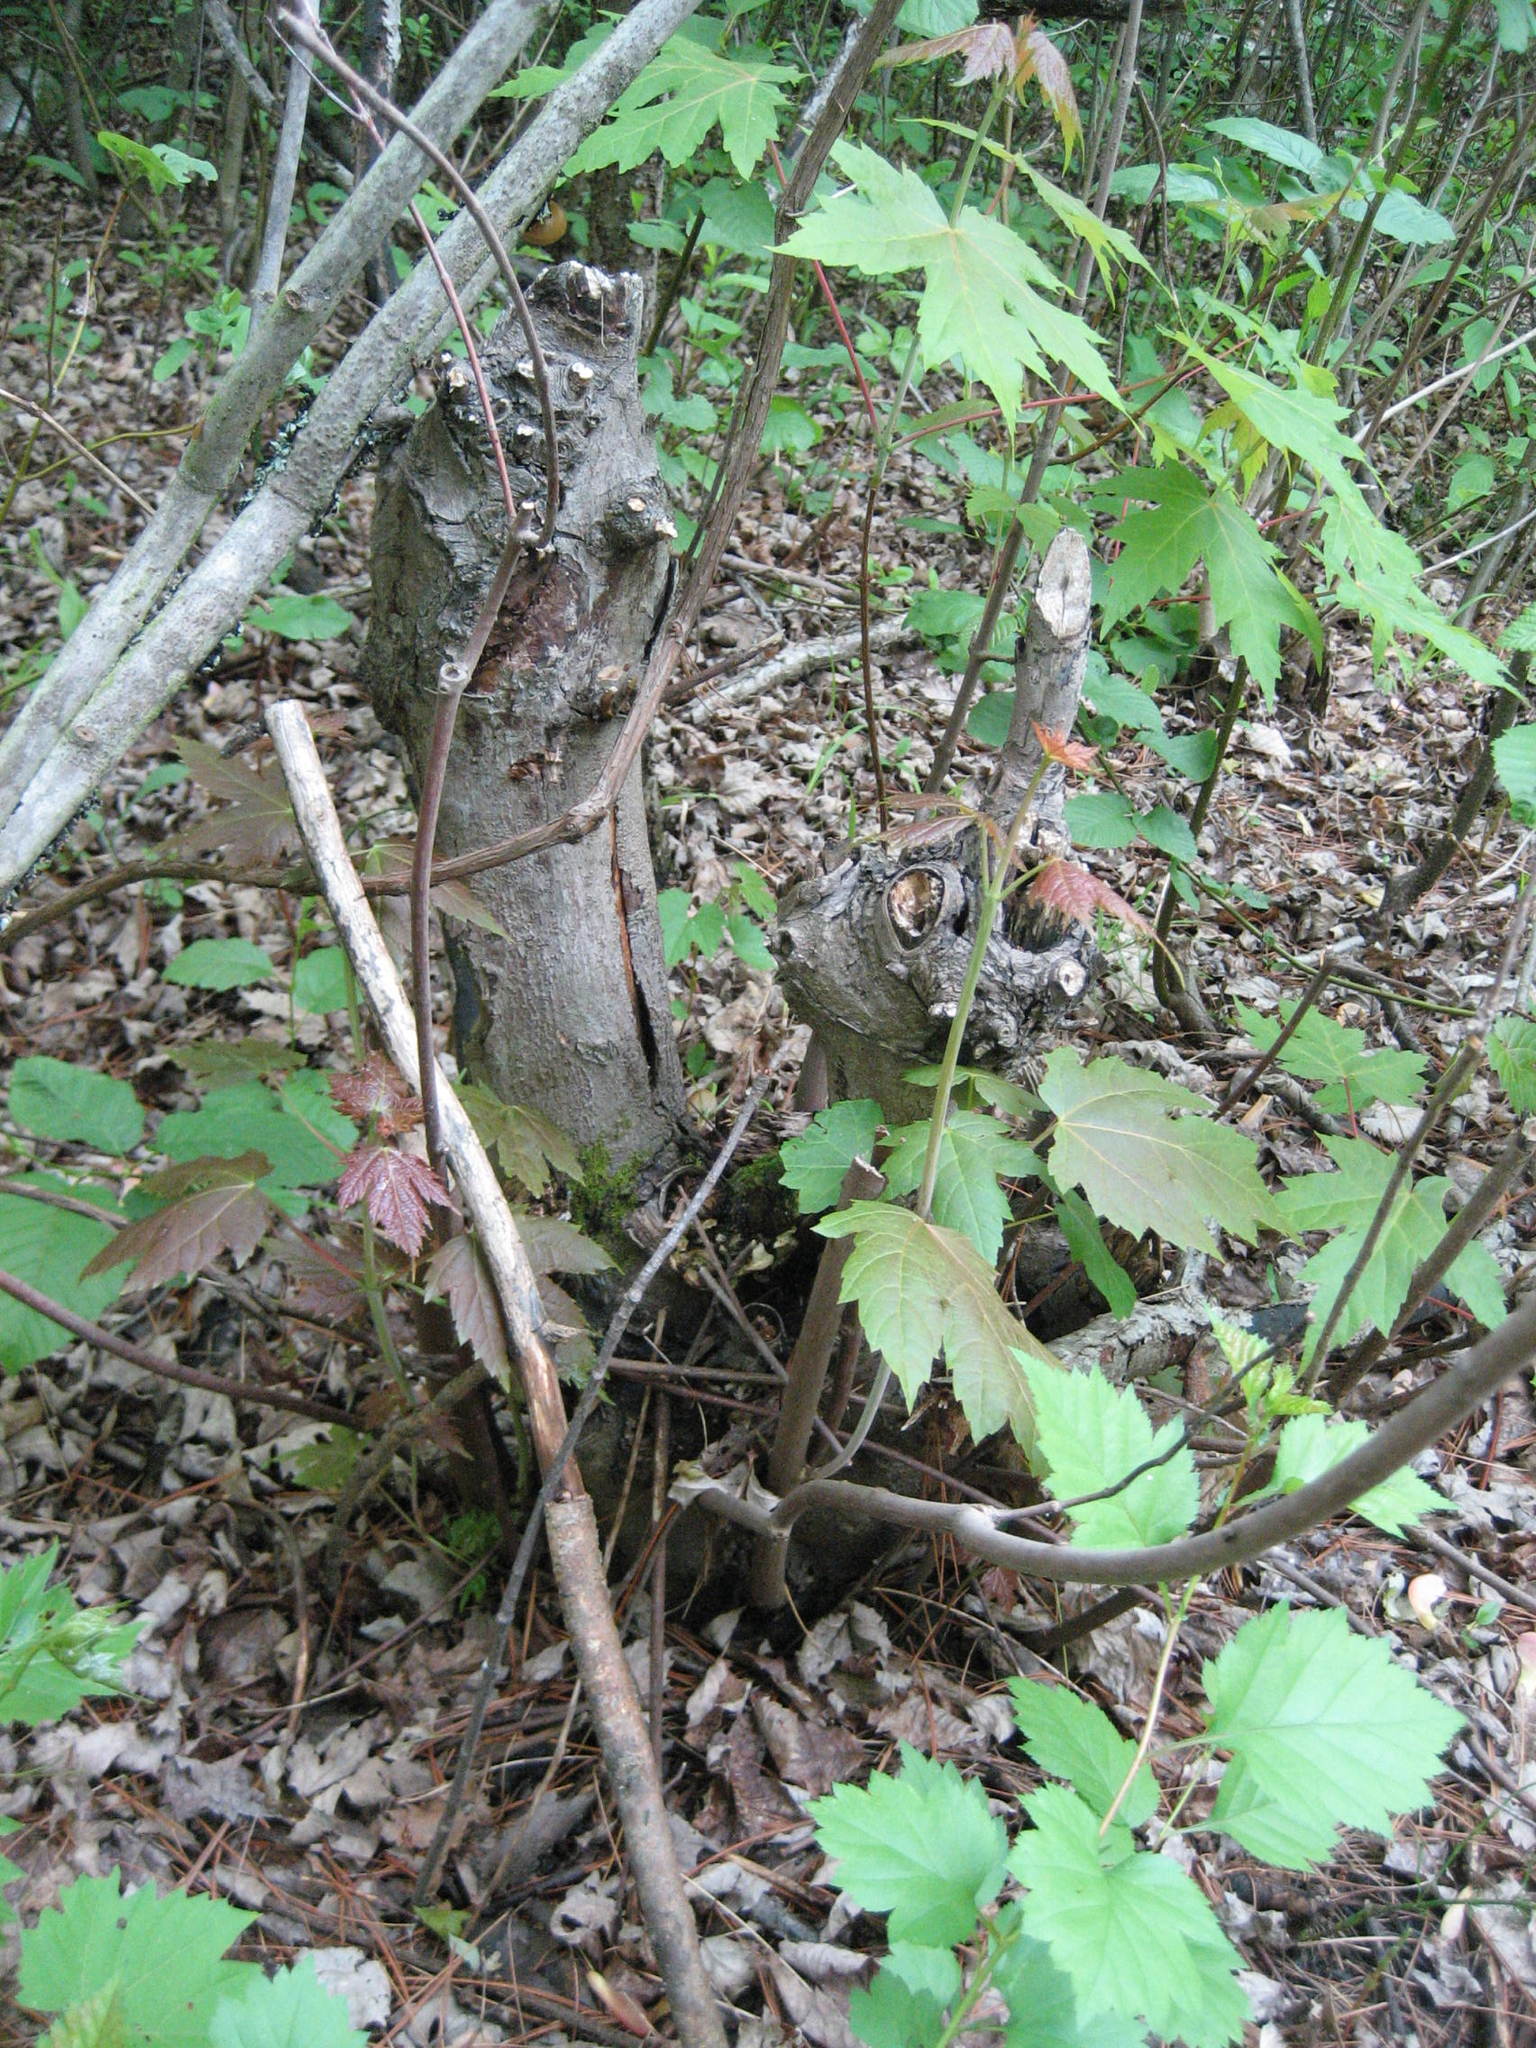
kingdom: Plantae
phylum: Tracheophyta
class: Magnoliopsida
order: Sapindales
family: Sapindaceae
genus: Acer
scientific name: Acer saccharinum
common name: Silver maple
